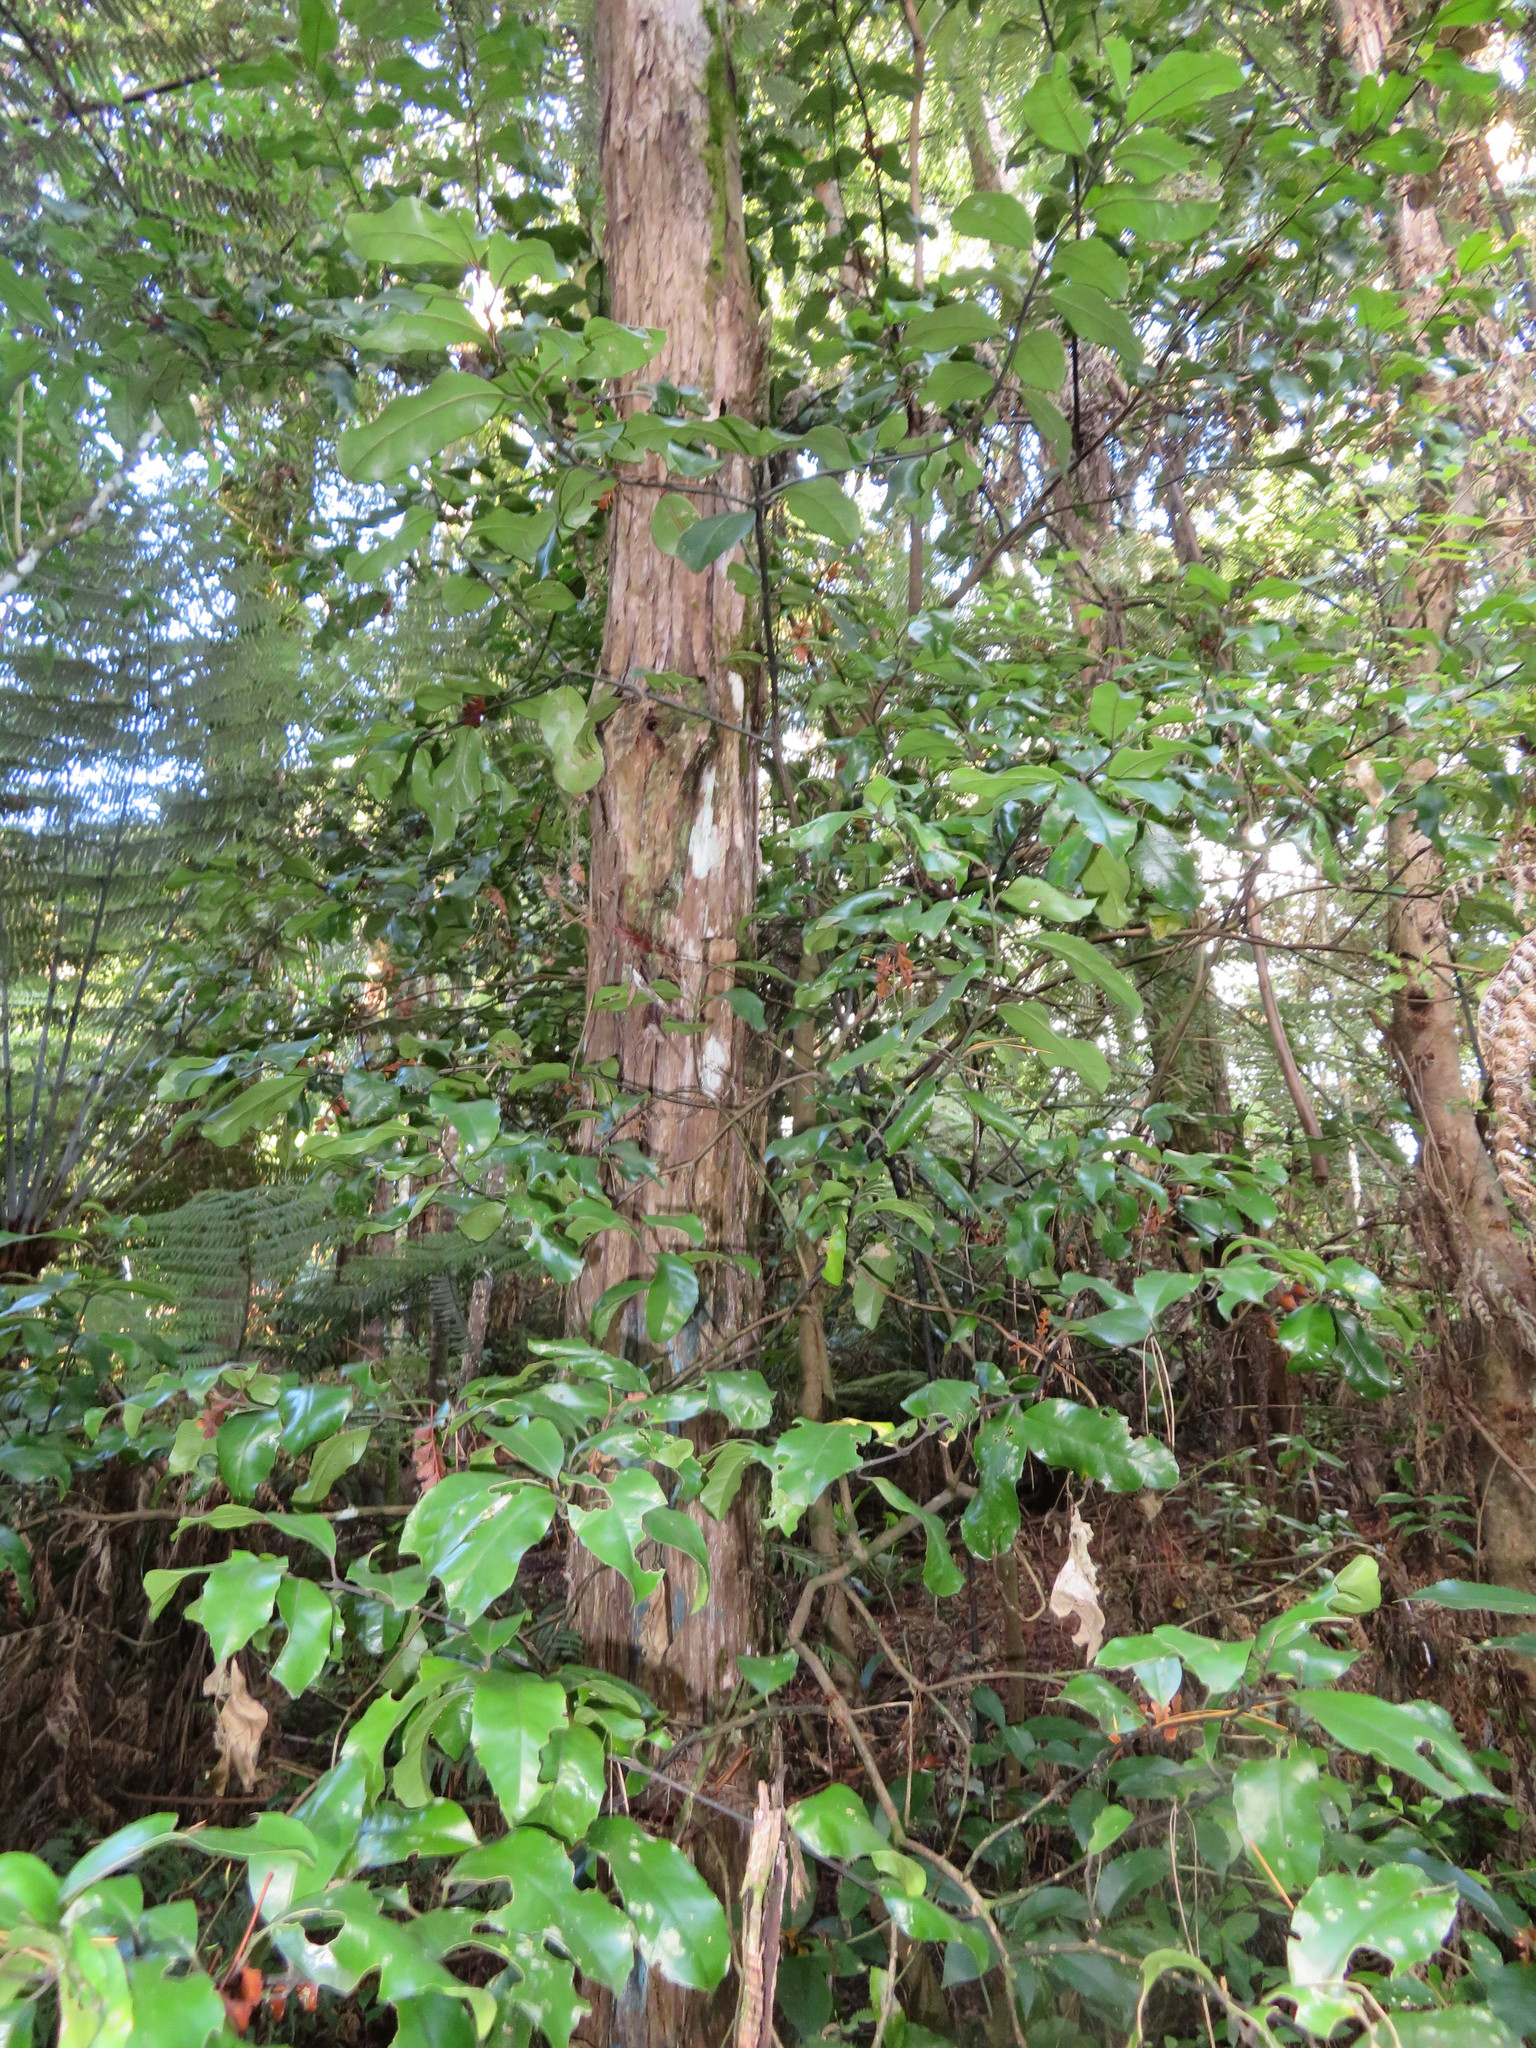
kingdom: Plantae
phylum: Tracheophyta
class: Magnoliopsida
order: Laurales
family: Monimiaceae
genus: Hedycarya
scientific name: Hedycarya arborea
